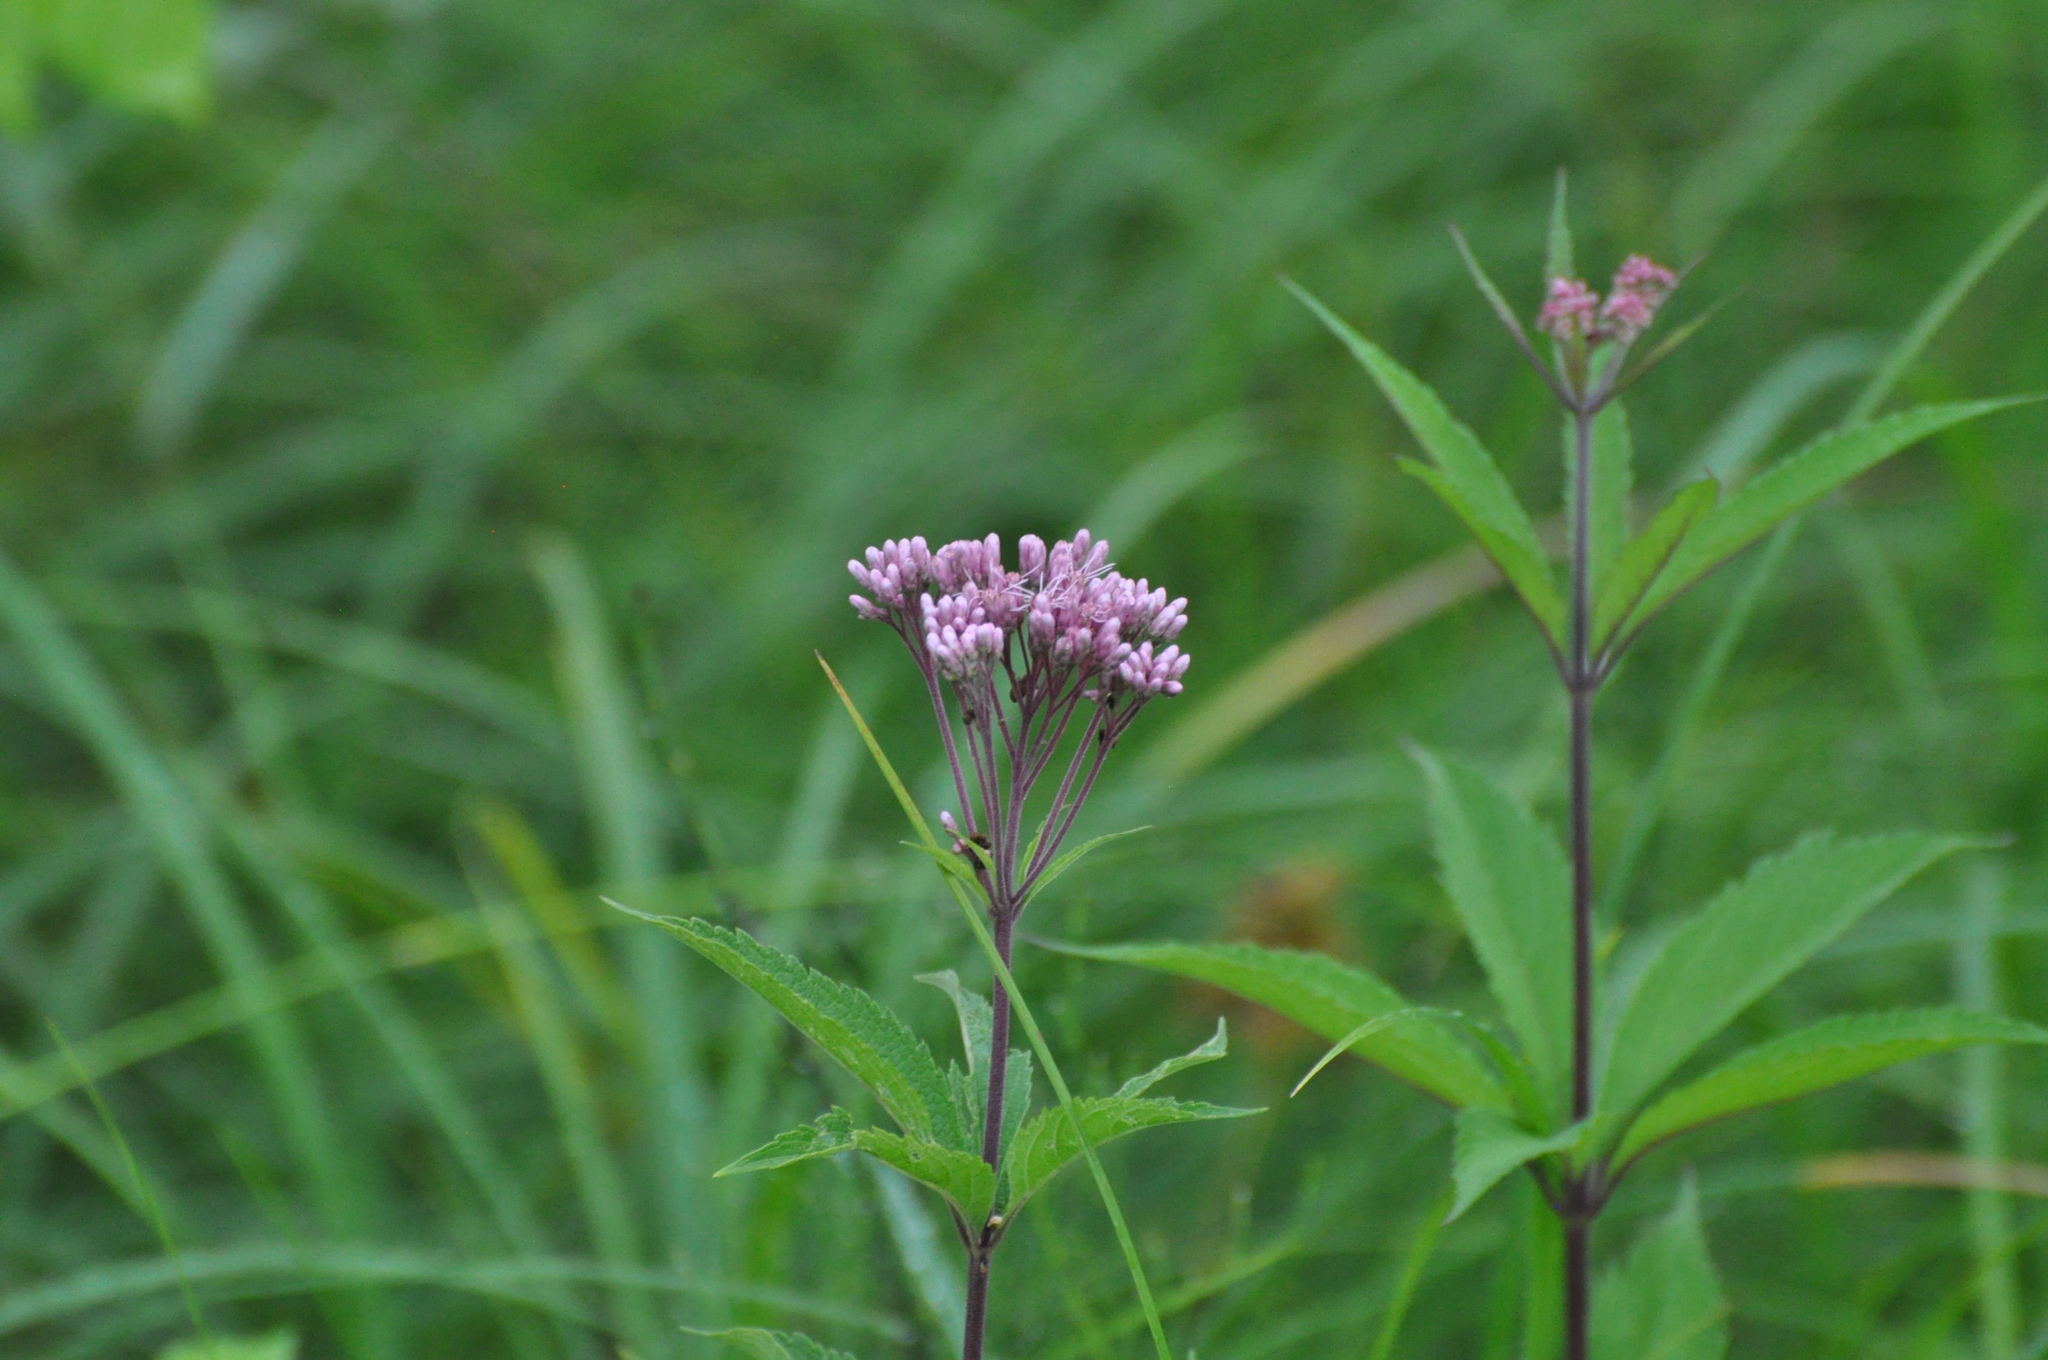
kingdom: Plantae
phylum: Tracheophyta
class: Magnoliopsida
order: Asterales
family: Asteraceae
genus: Eutrochium
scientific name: Eutrochium maculatum
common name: Spotted joe pye weed
